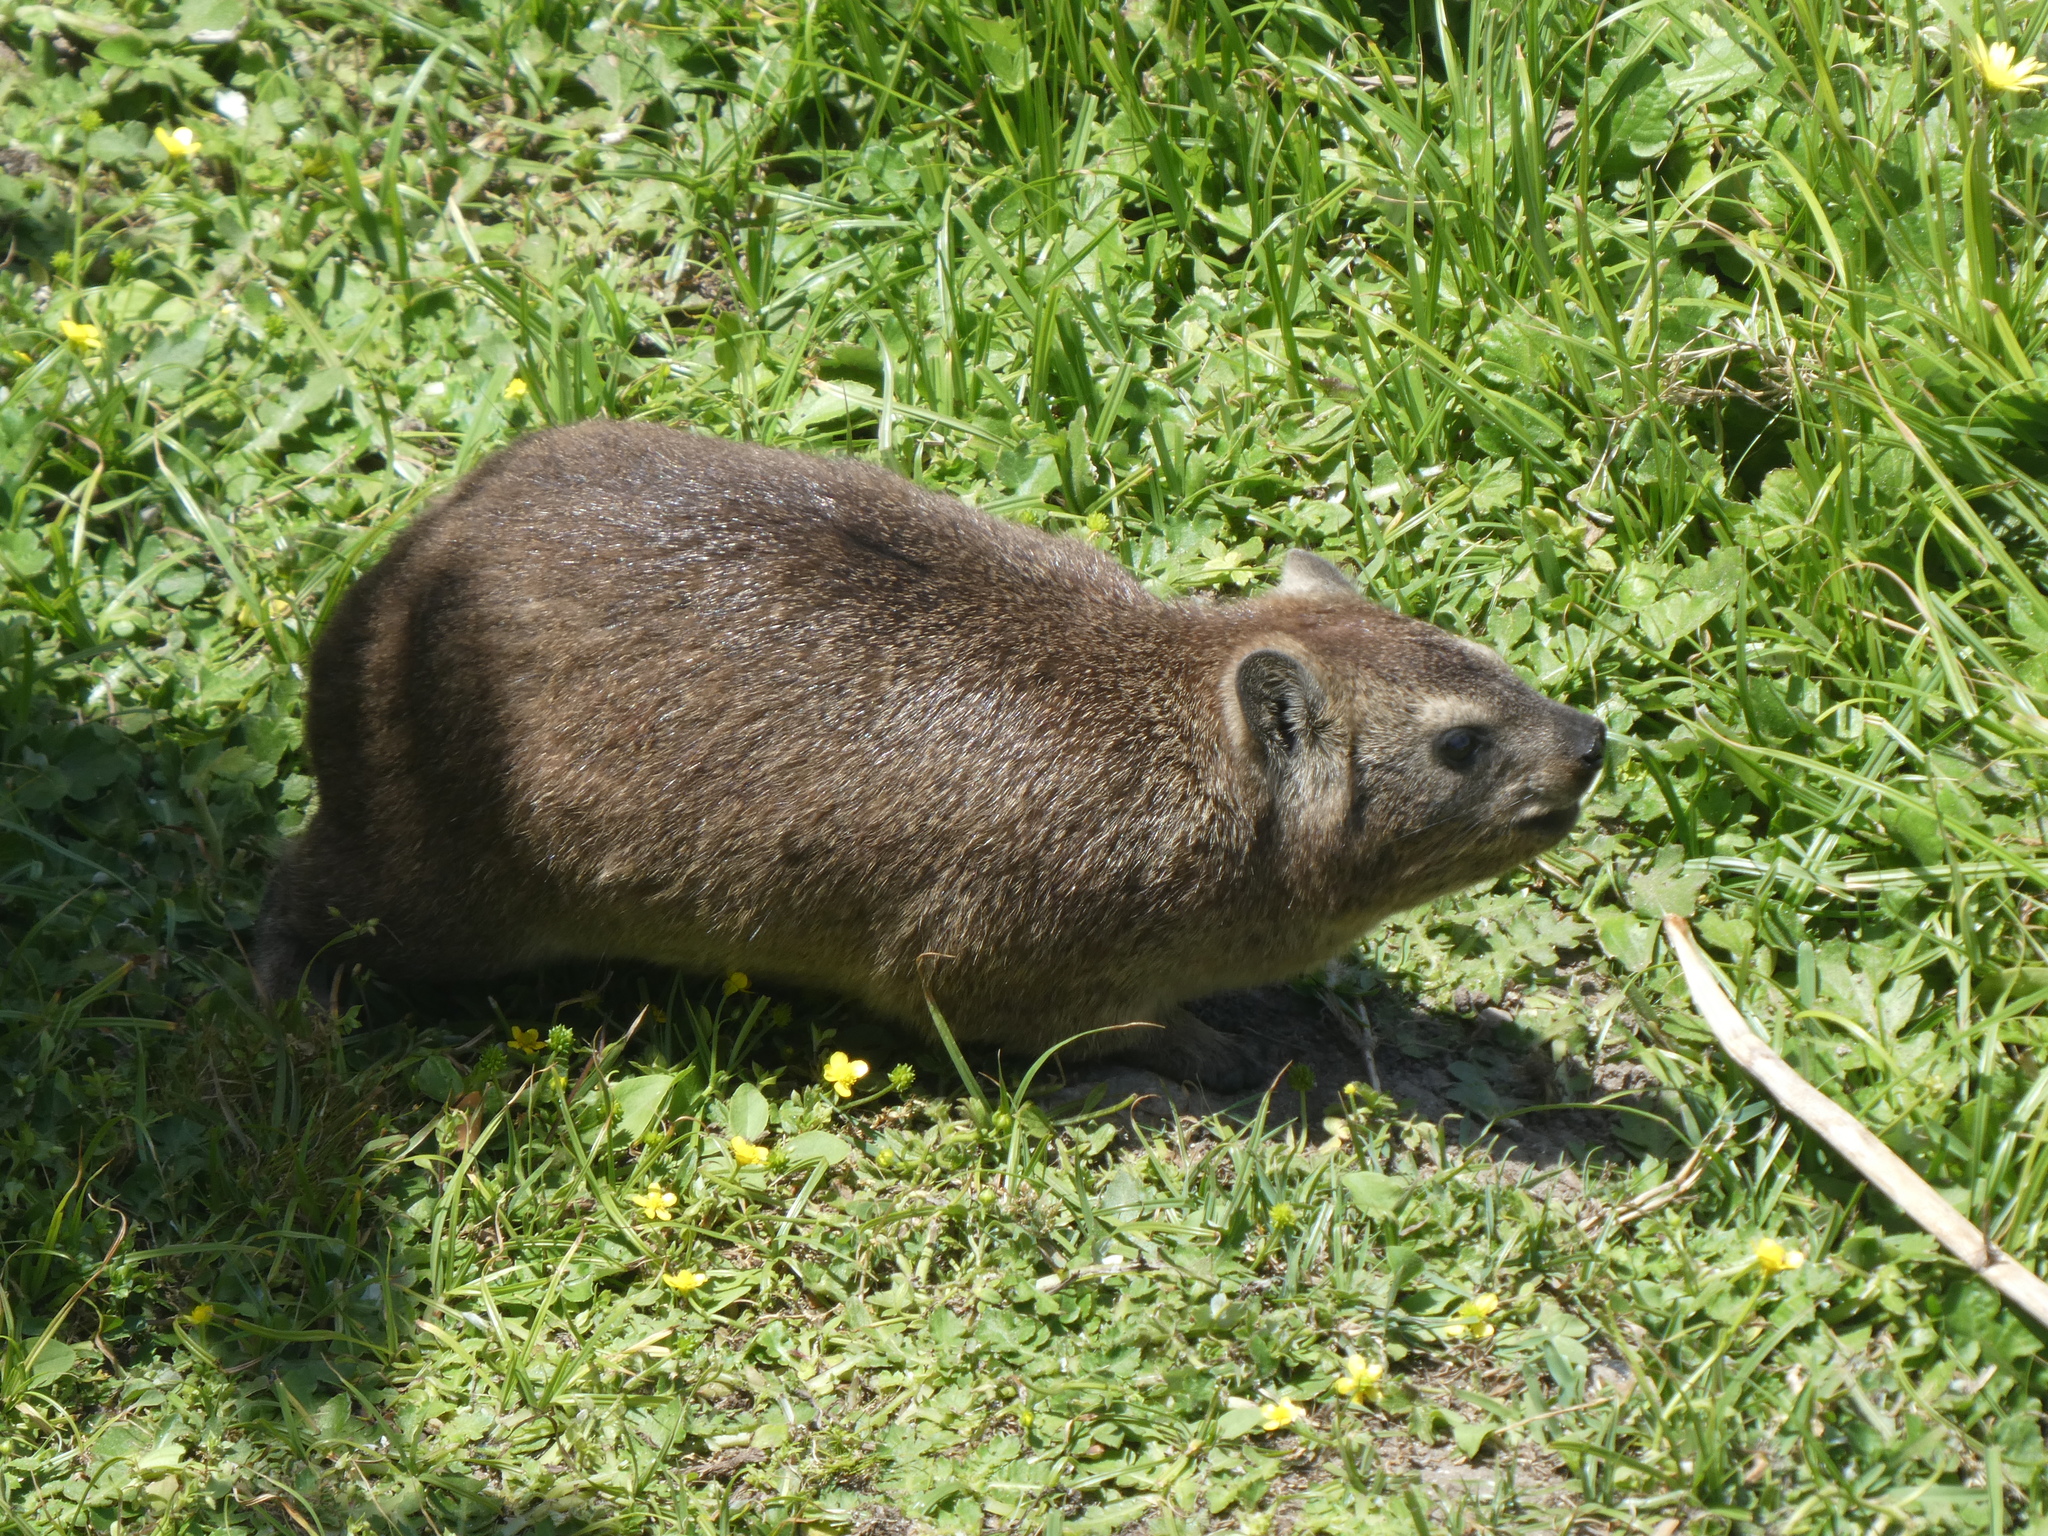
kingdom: Animalia
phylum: Chordata
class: Mammalia
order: Hyracoidea
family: Procaviidae
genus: Procavia
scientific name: Procavia capensis
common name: Rock hyrax
